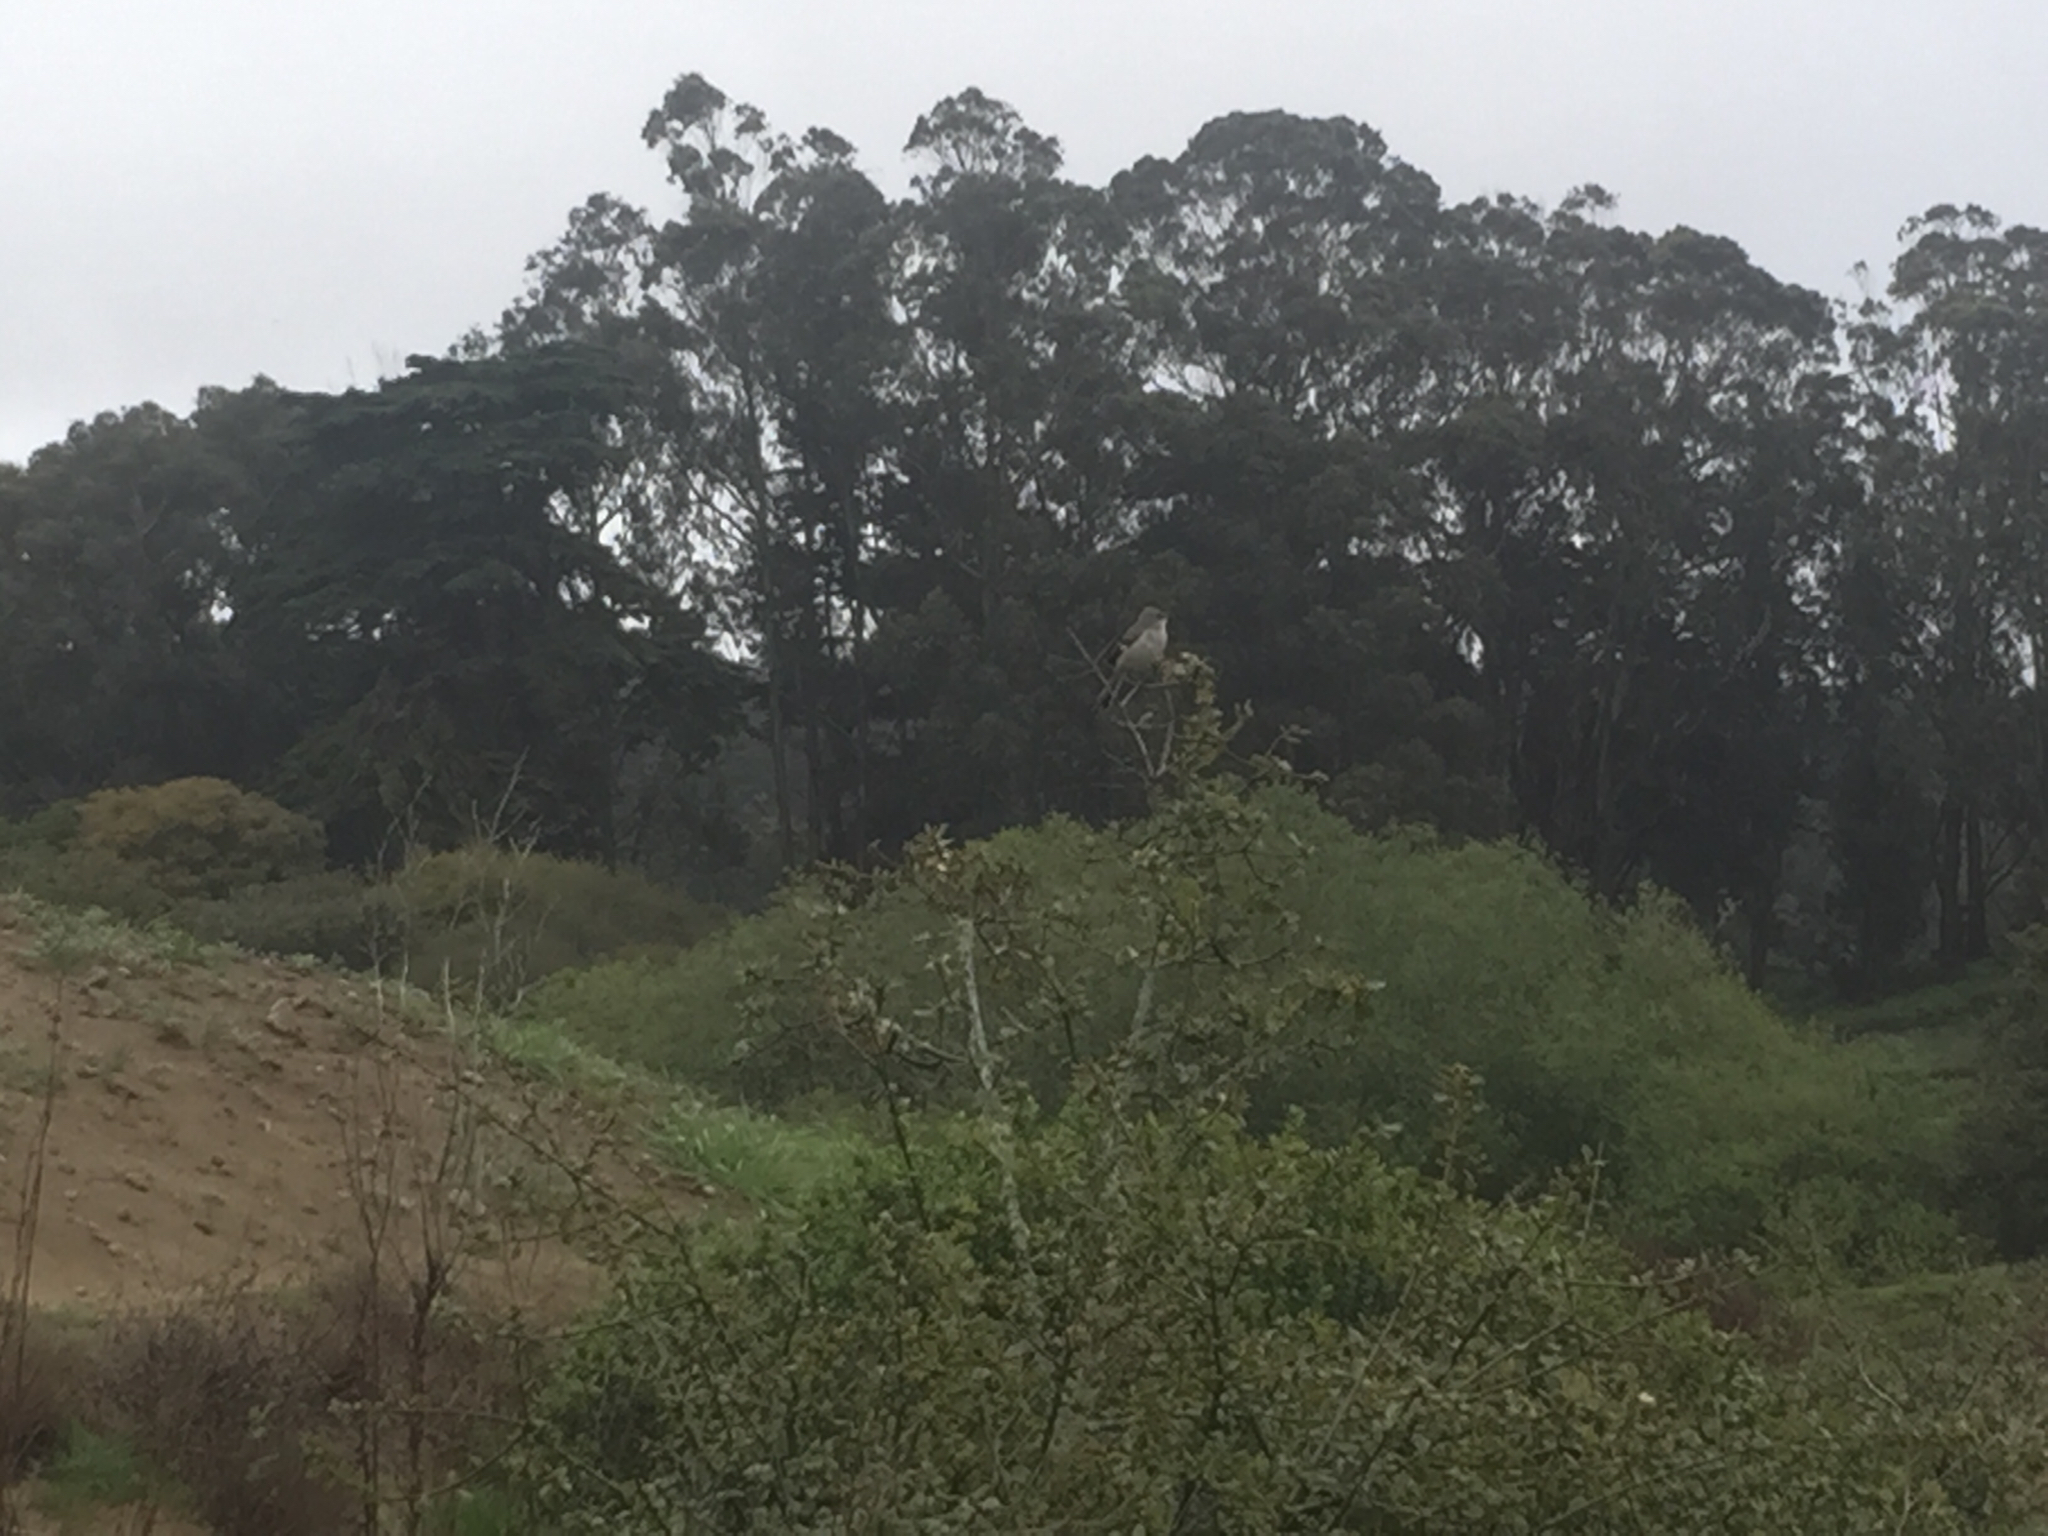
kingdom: Animalia
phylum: Chordata
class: Aves
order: Passeriformes
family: Mimidae
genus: Mimus
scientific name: Mimus polyglottos
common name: Northern mockingbird
